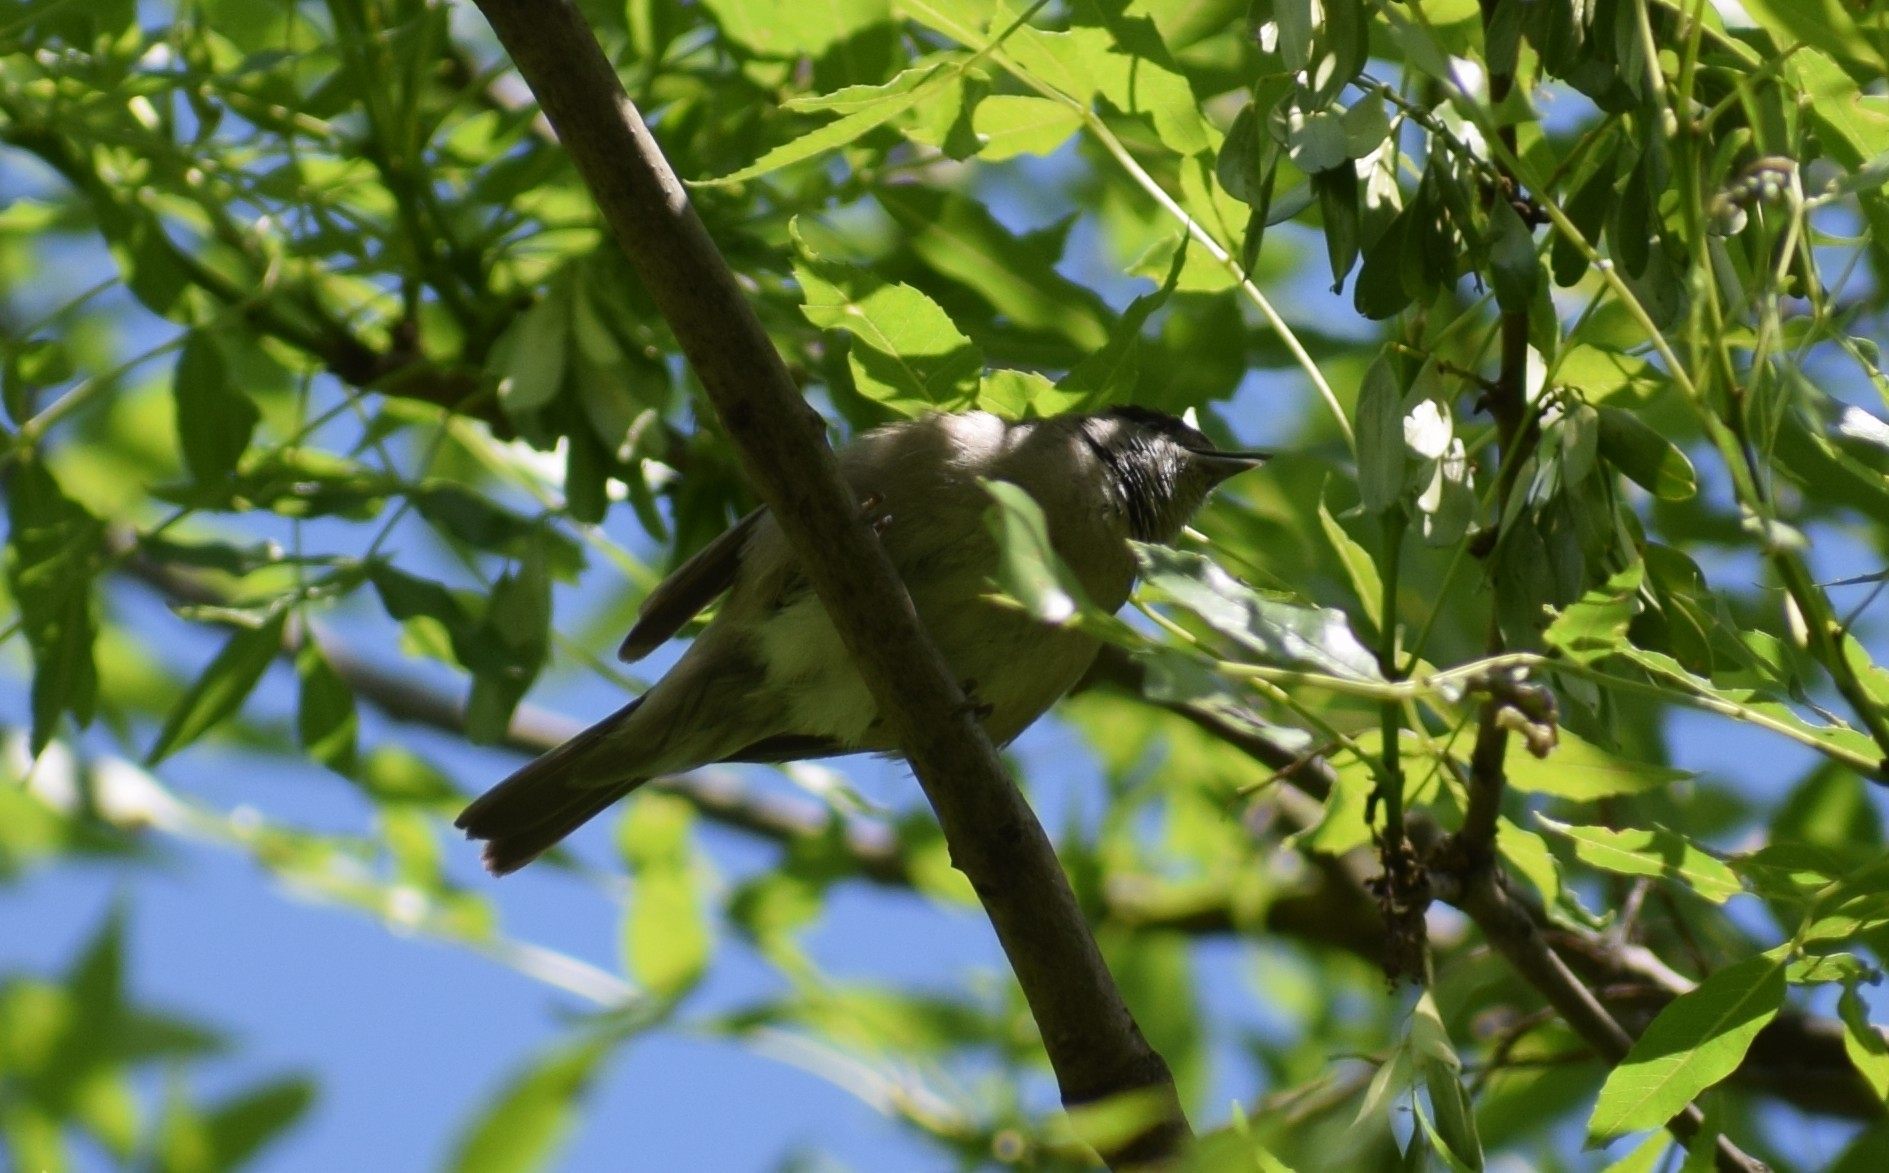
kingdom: Animalia
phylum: Chordata
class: Aves
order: Passeriformes
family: Sylviidae
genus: Sylvia
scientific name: Sylvia atricapilla
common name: Eurasian blackcap
